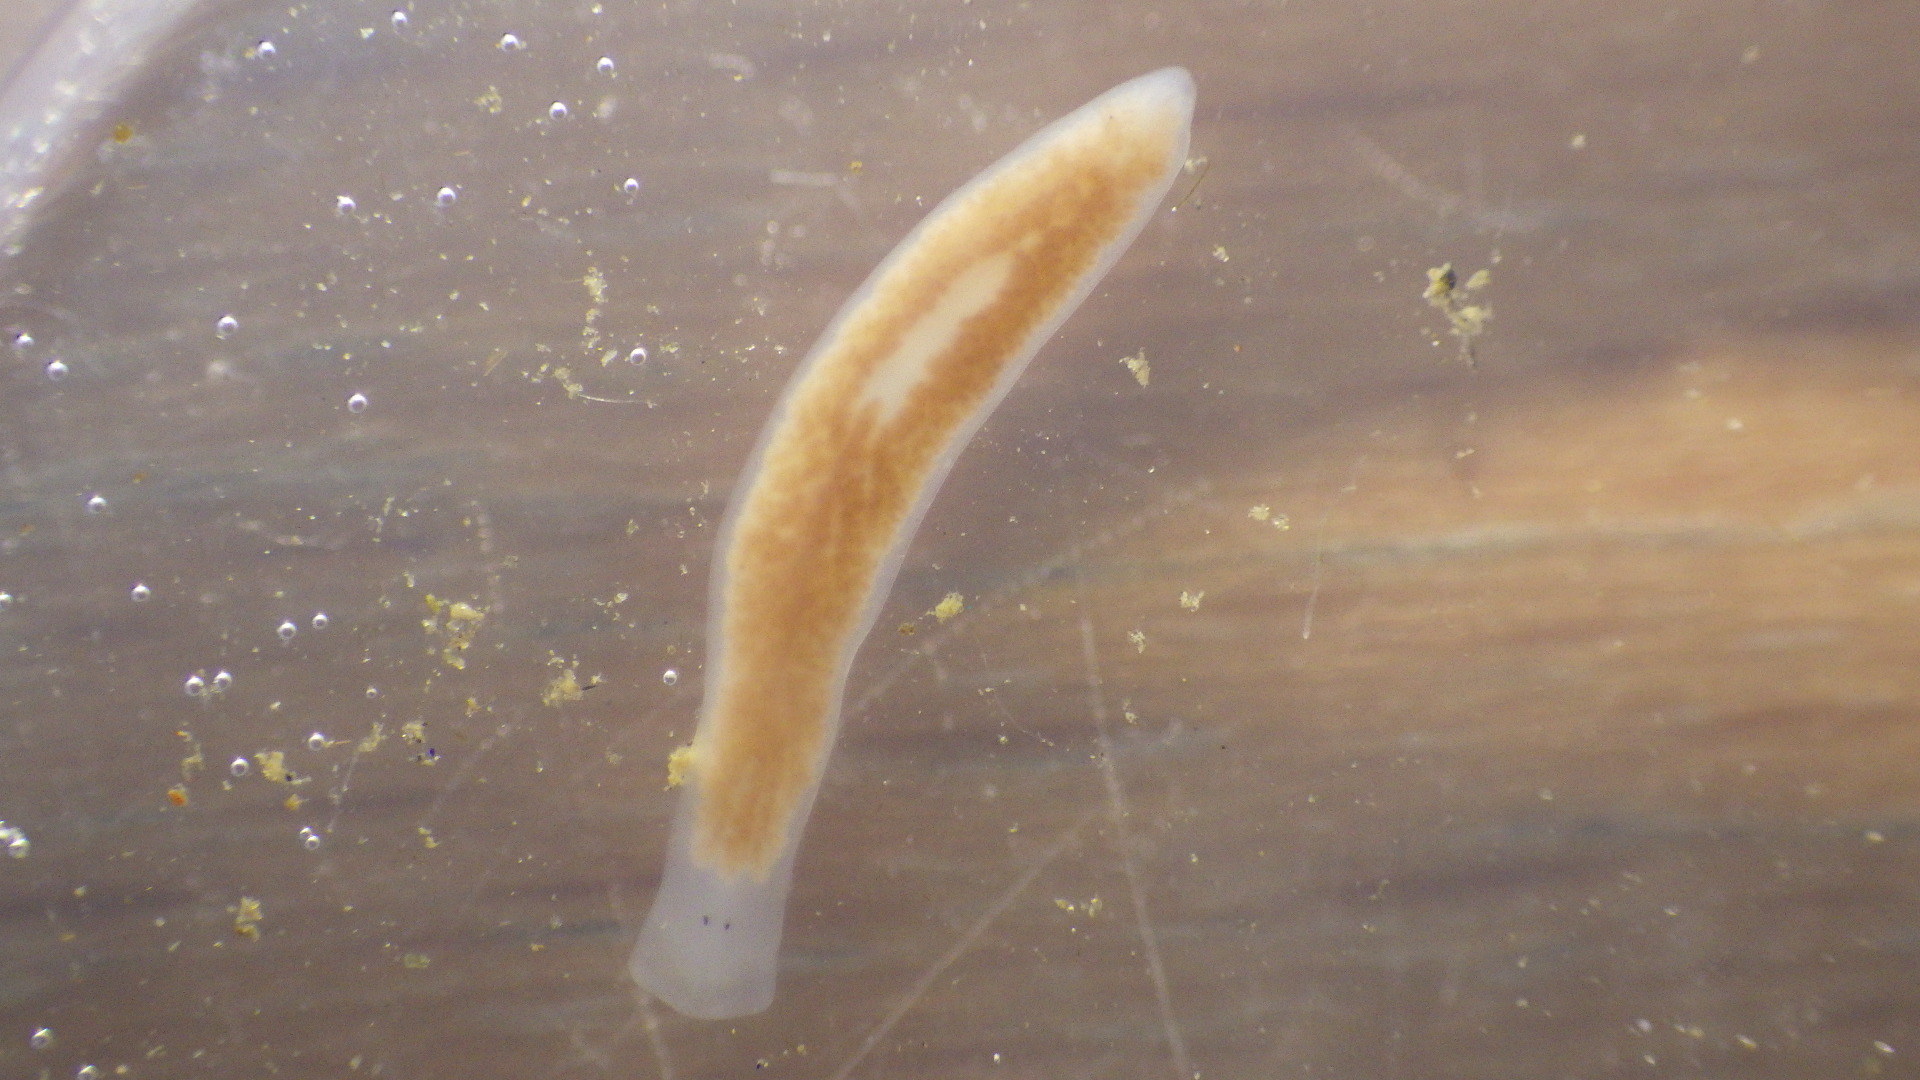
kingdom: Animalia
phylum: Platyhelminthes
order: Tricladida
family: Planariidae
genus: Phagocata
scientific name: Phagocata morgani
